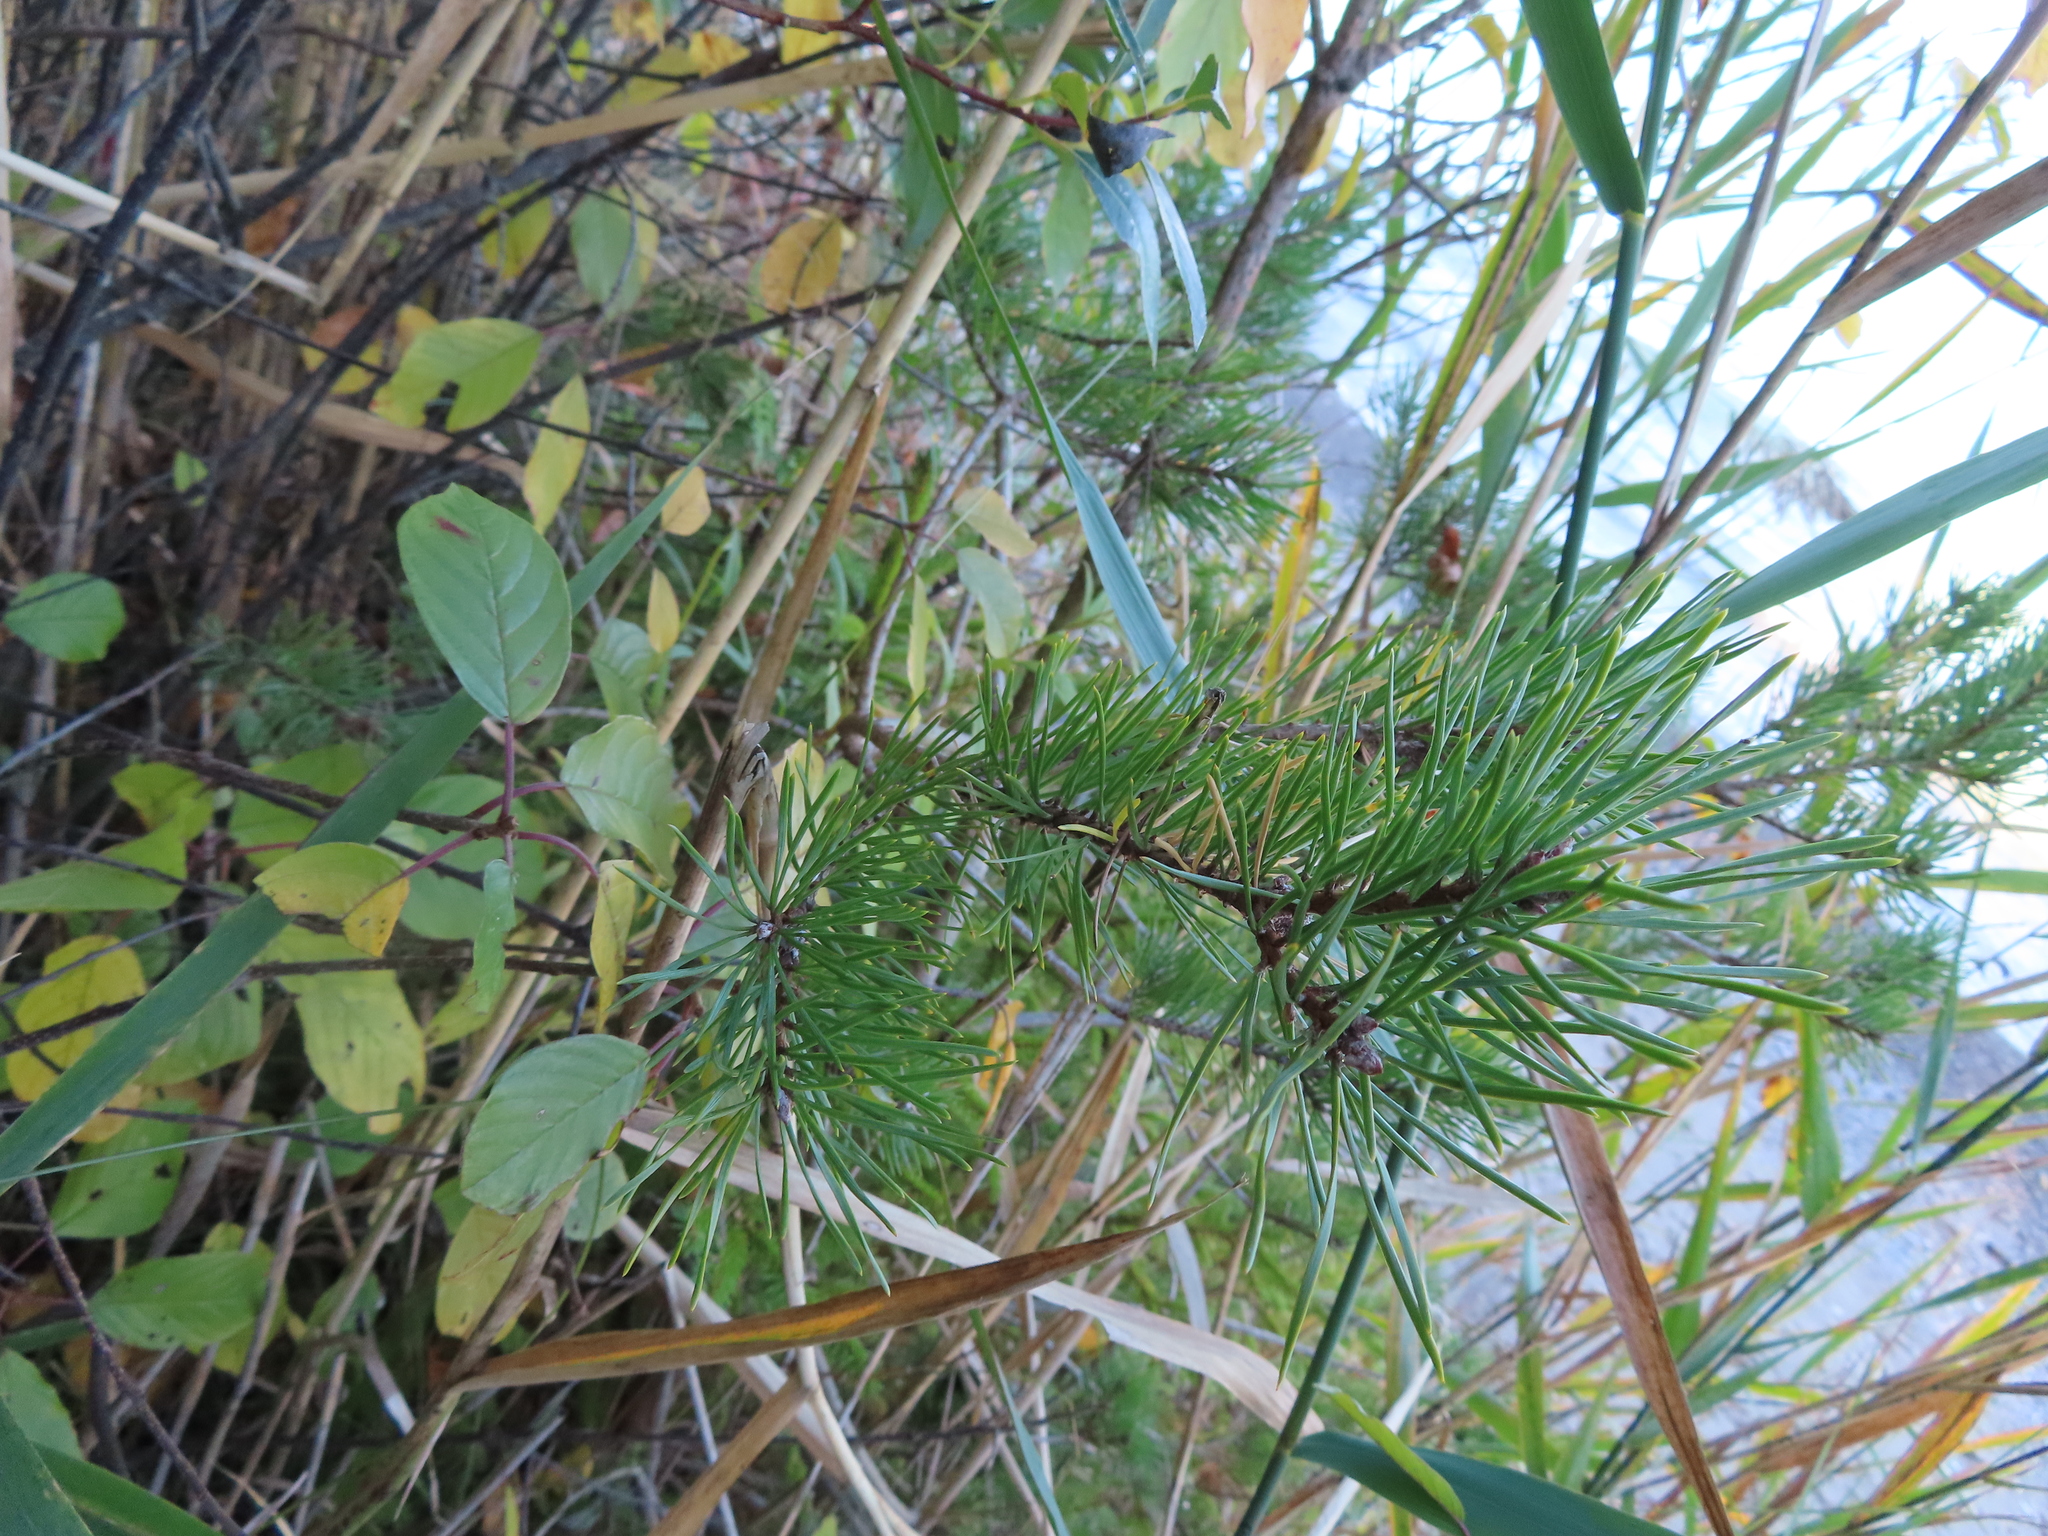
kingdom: Plantae
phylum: Tracheophyta
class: Pinopsida
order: Pinales
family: Pinaceae
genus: Pinus
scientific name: Pinus banksiana
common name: Jack pine
